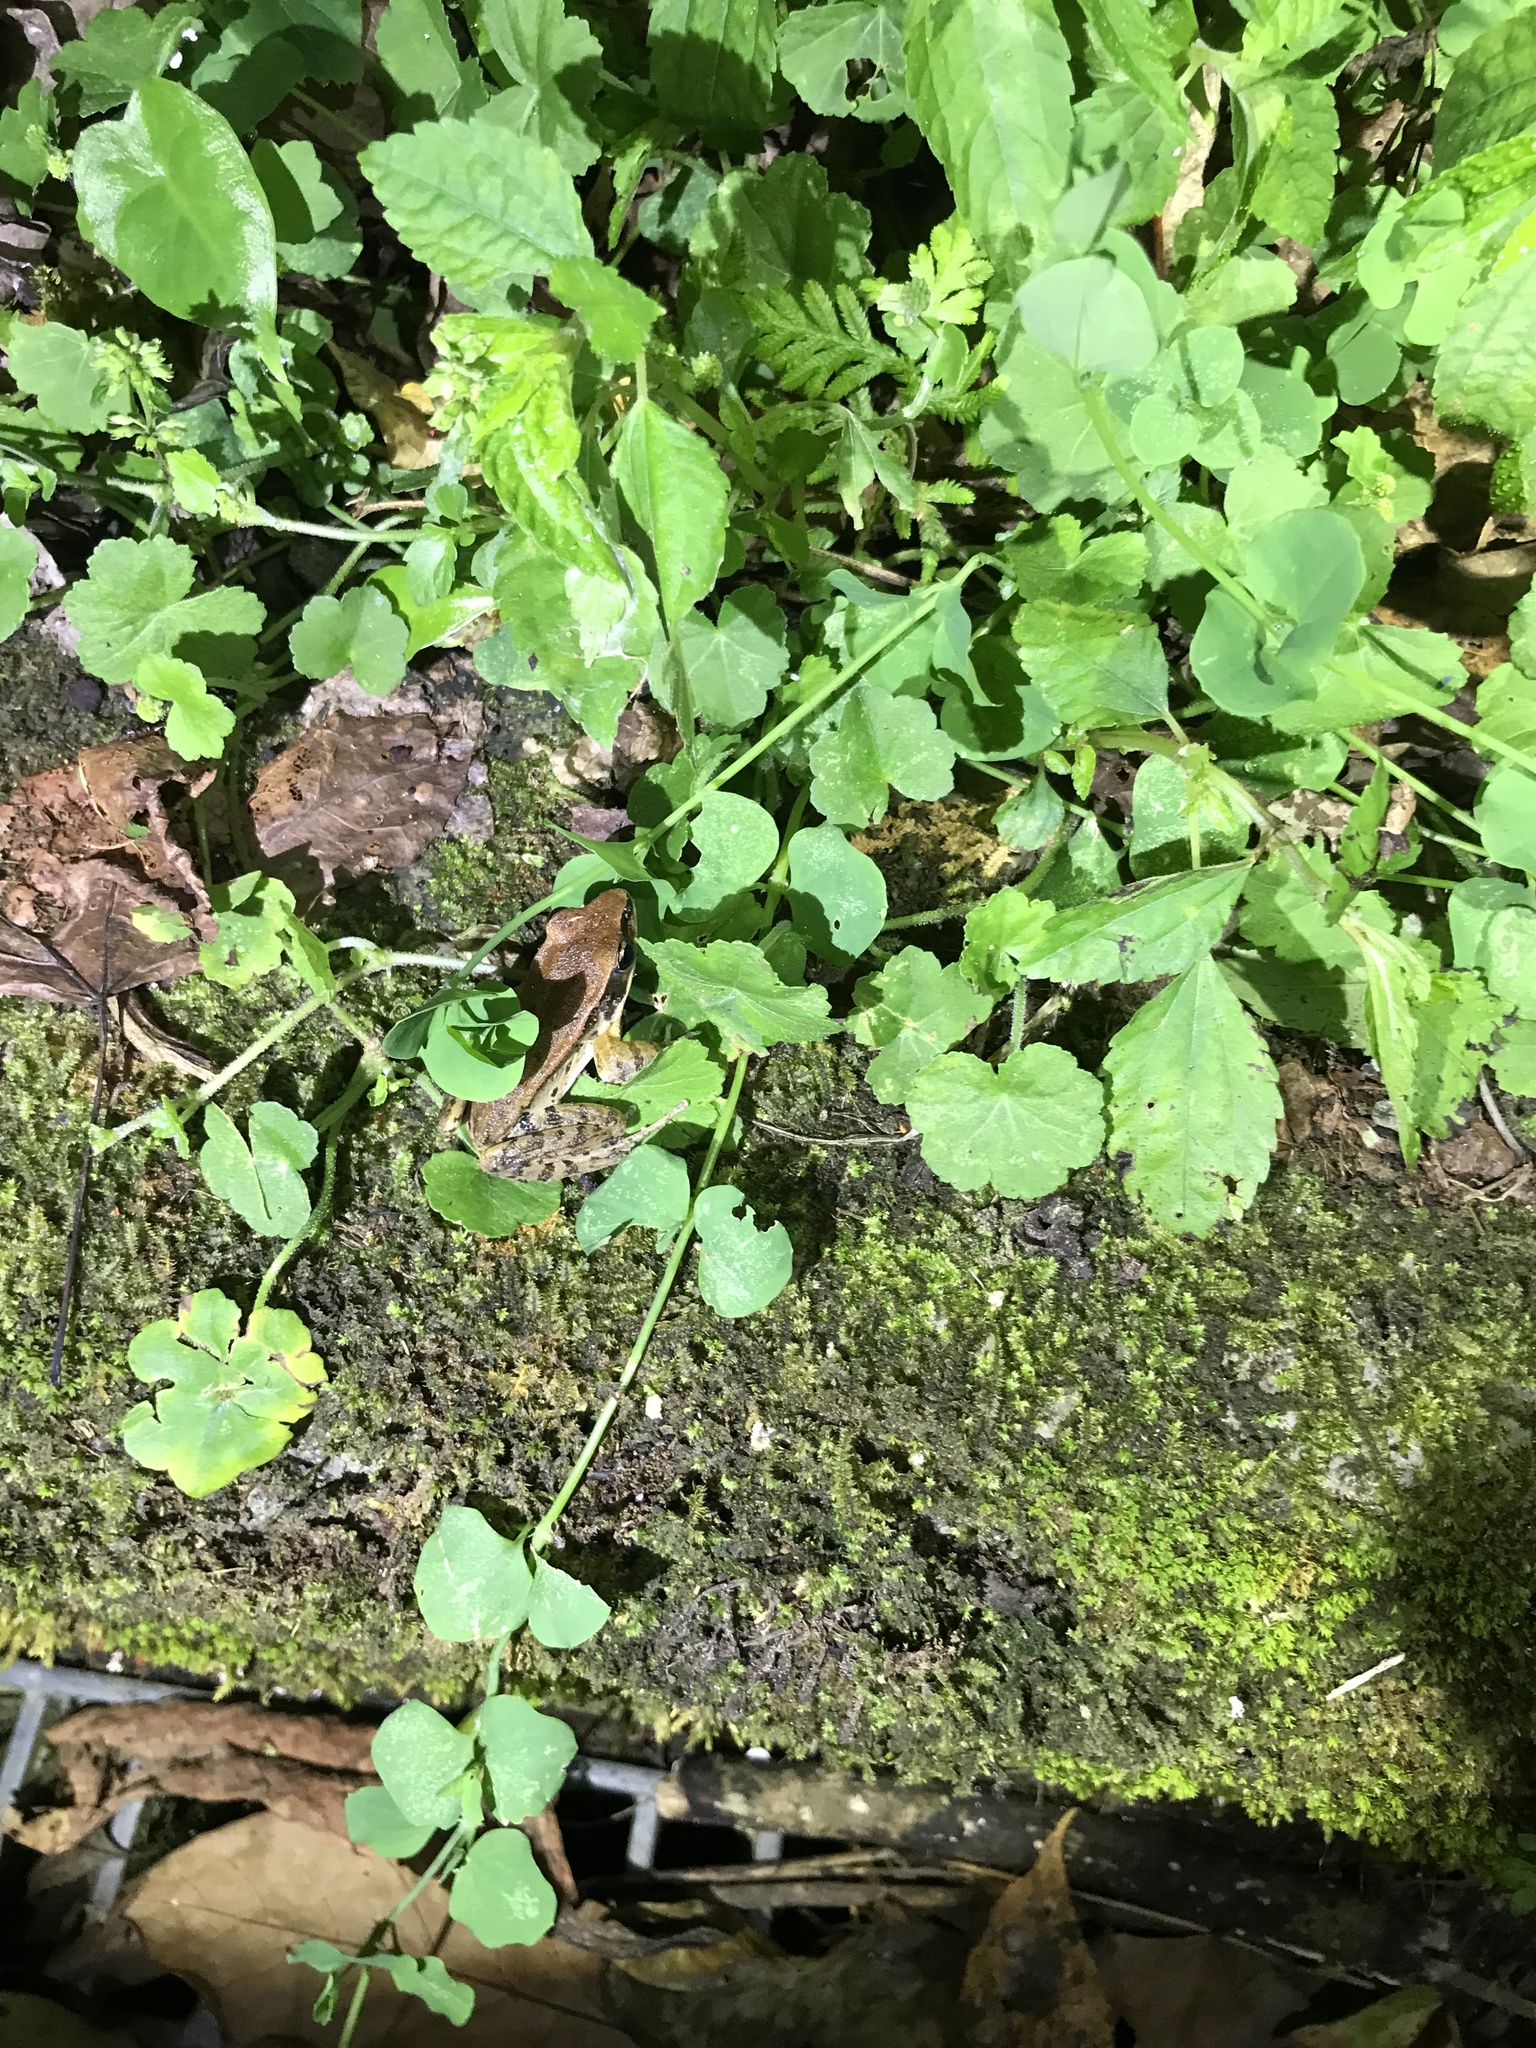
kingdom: Animalia
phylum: Chordata
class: Amphibia
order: Anura
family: Ranidae
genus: Hylarana
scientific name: Hylarana latouchii
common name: Broad-folded frog
